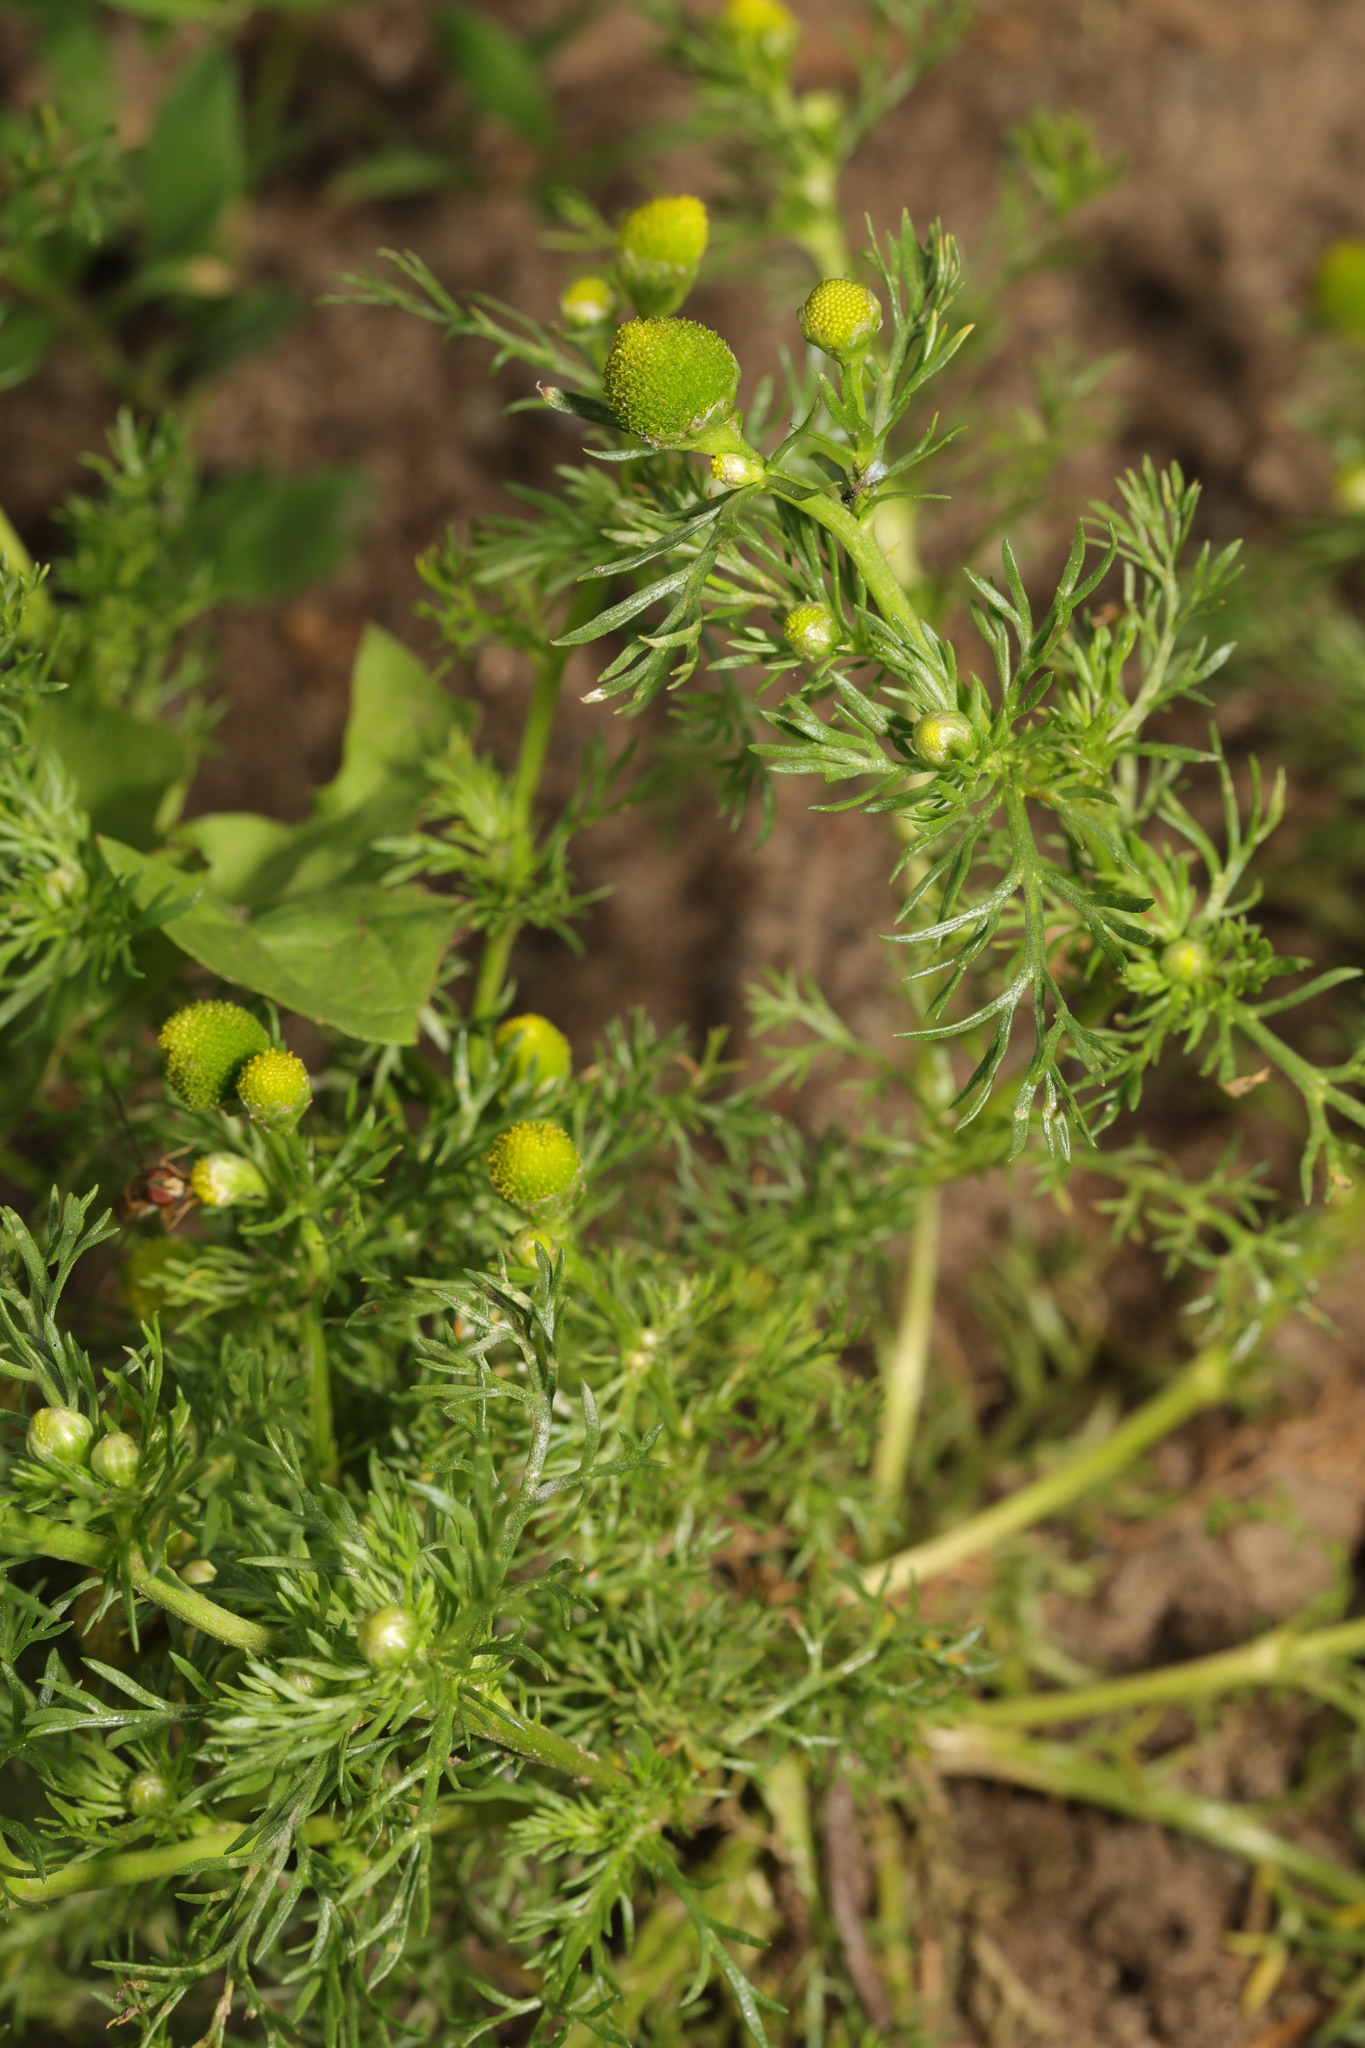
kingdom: Plantae
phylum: Tracheophyta
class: Magnoliopsida
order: Asterales
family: Asteraceae
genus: Matricaria
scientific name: Matricaria discoidea
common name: Disc mayweed
